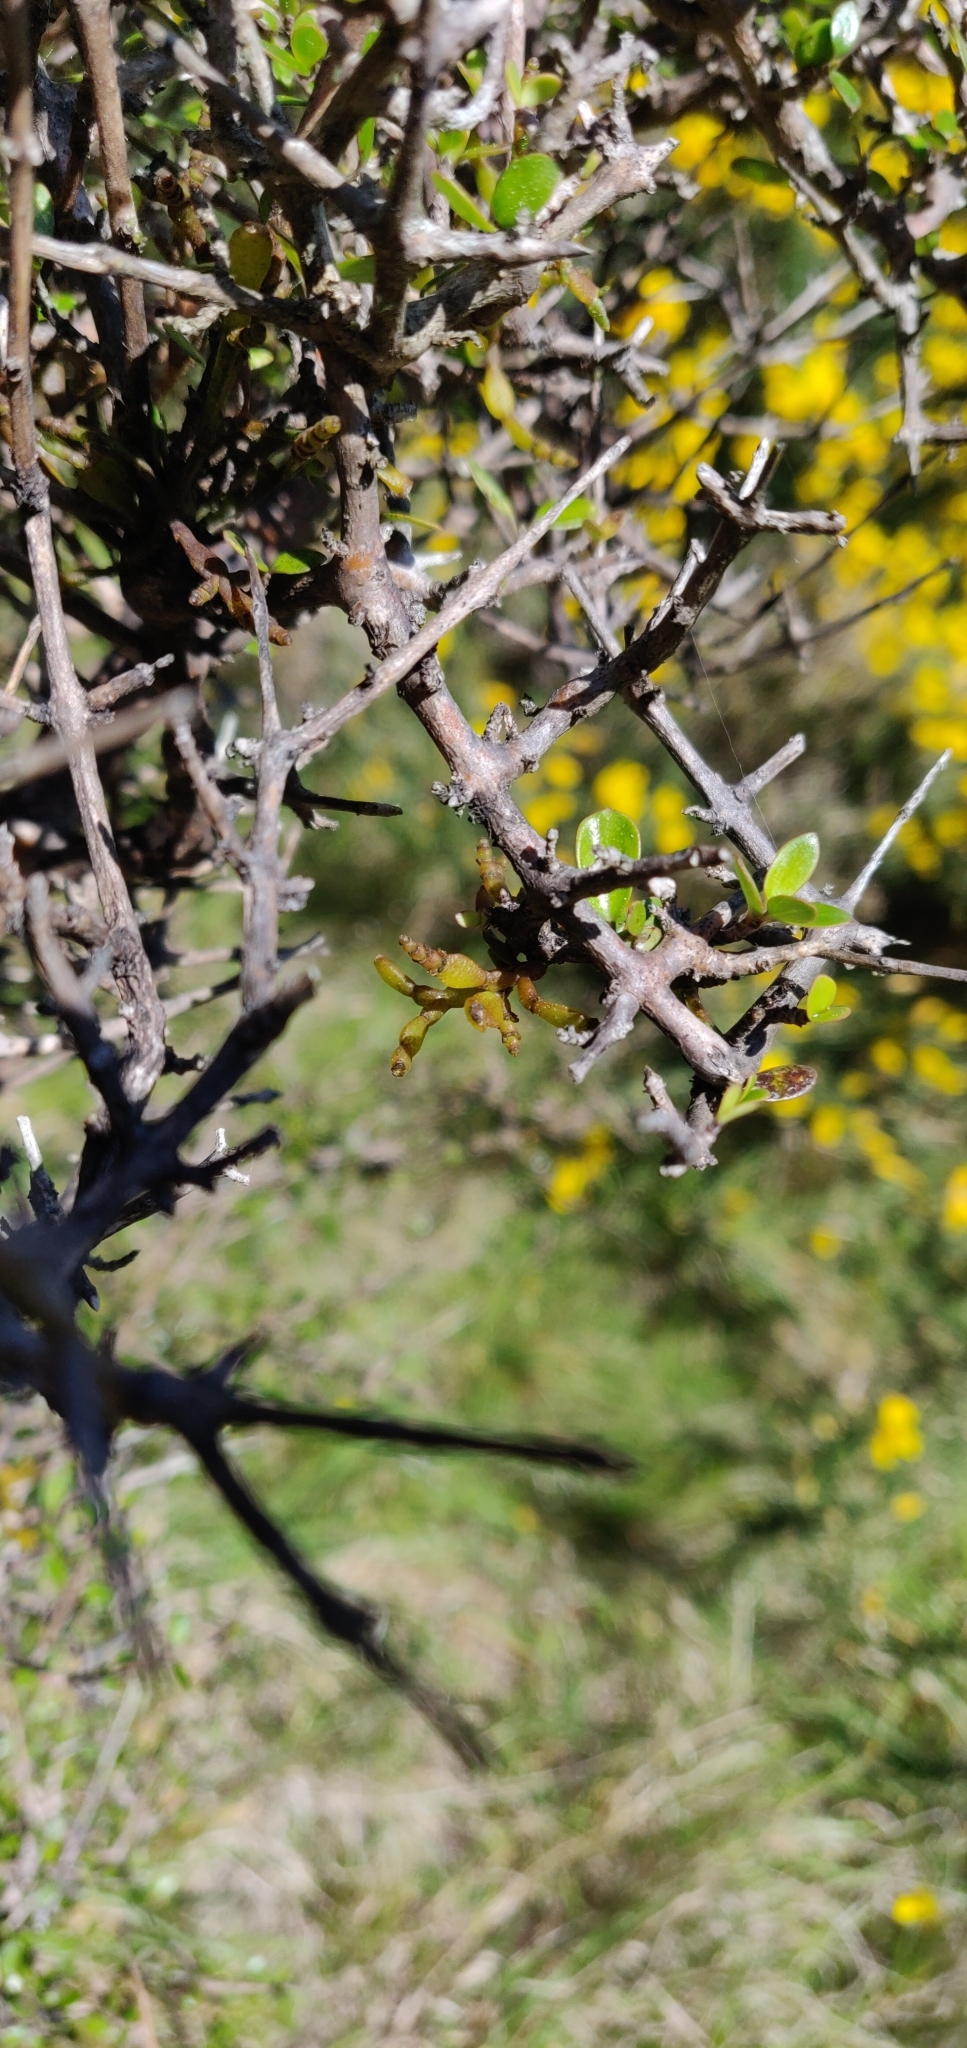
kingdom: Plantae
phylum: Tracheophyta
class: Magnoliopsida
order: Santalales
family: Viscaceae
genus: Korthalsella
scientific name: Korthalsella clavata
